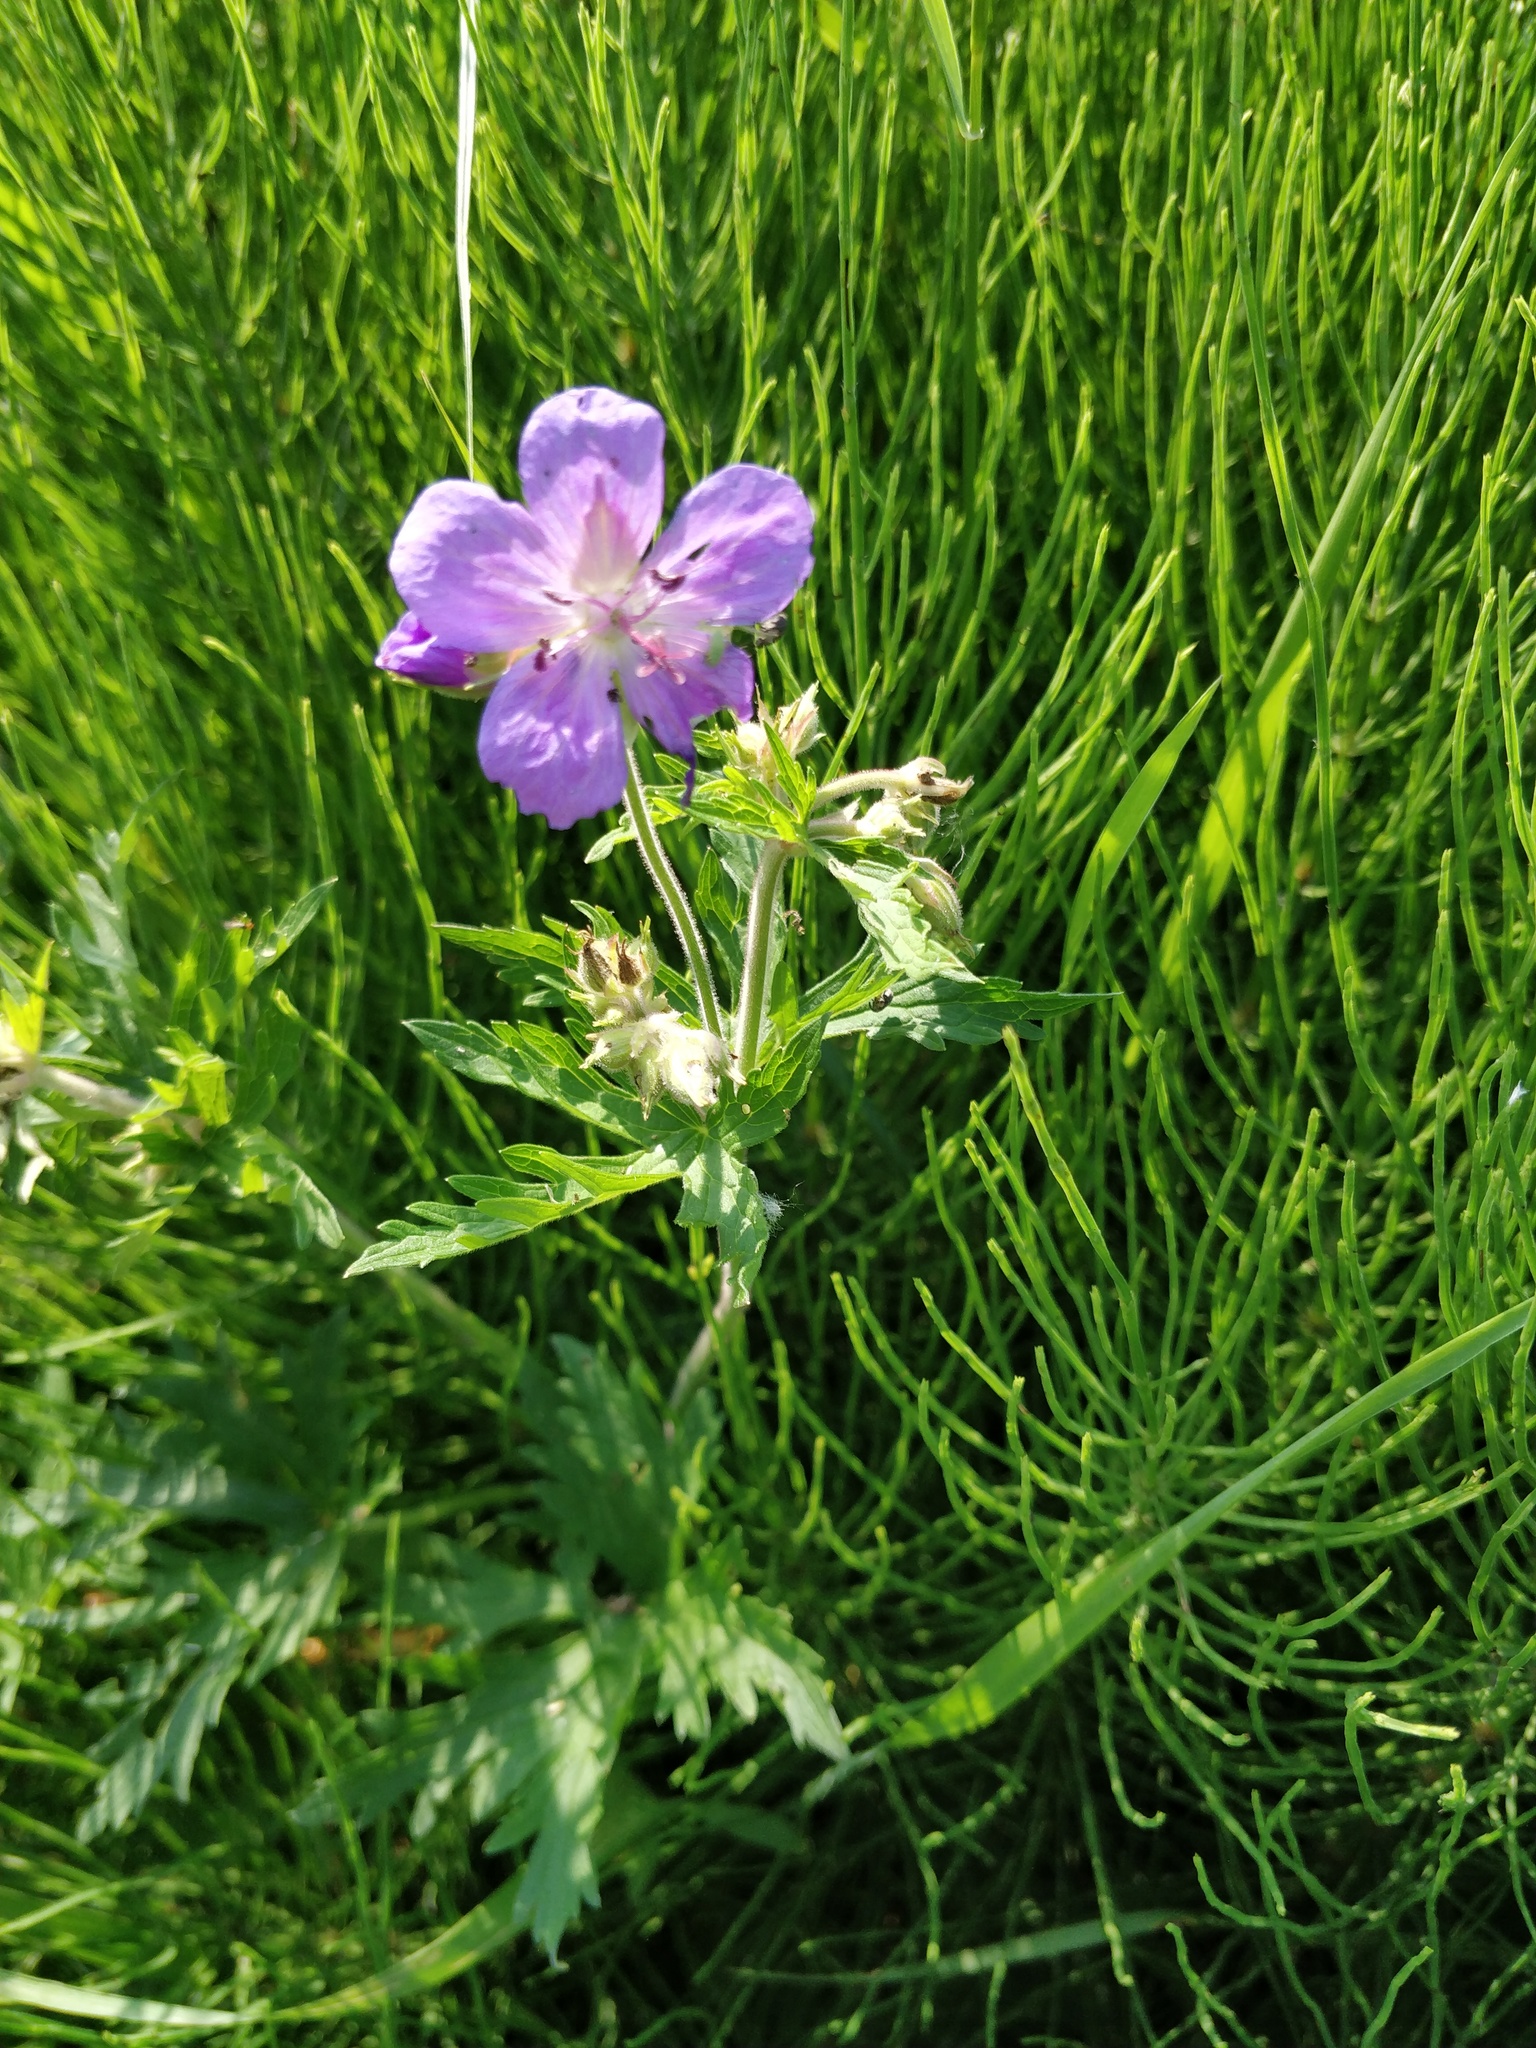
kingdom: Plantae
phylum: Tracheophyta
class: Magnoliopsida
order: Geraniales
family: Geraniaceae
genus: Geranium
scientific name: Geranium pratense
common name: Meadow crane's-bill
